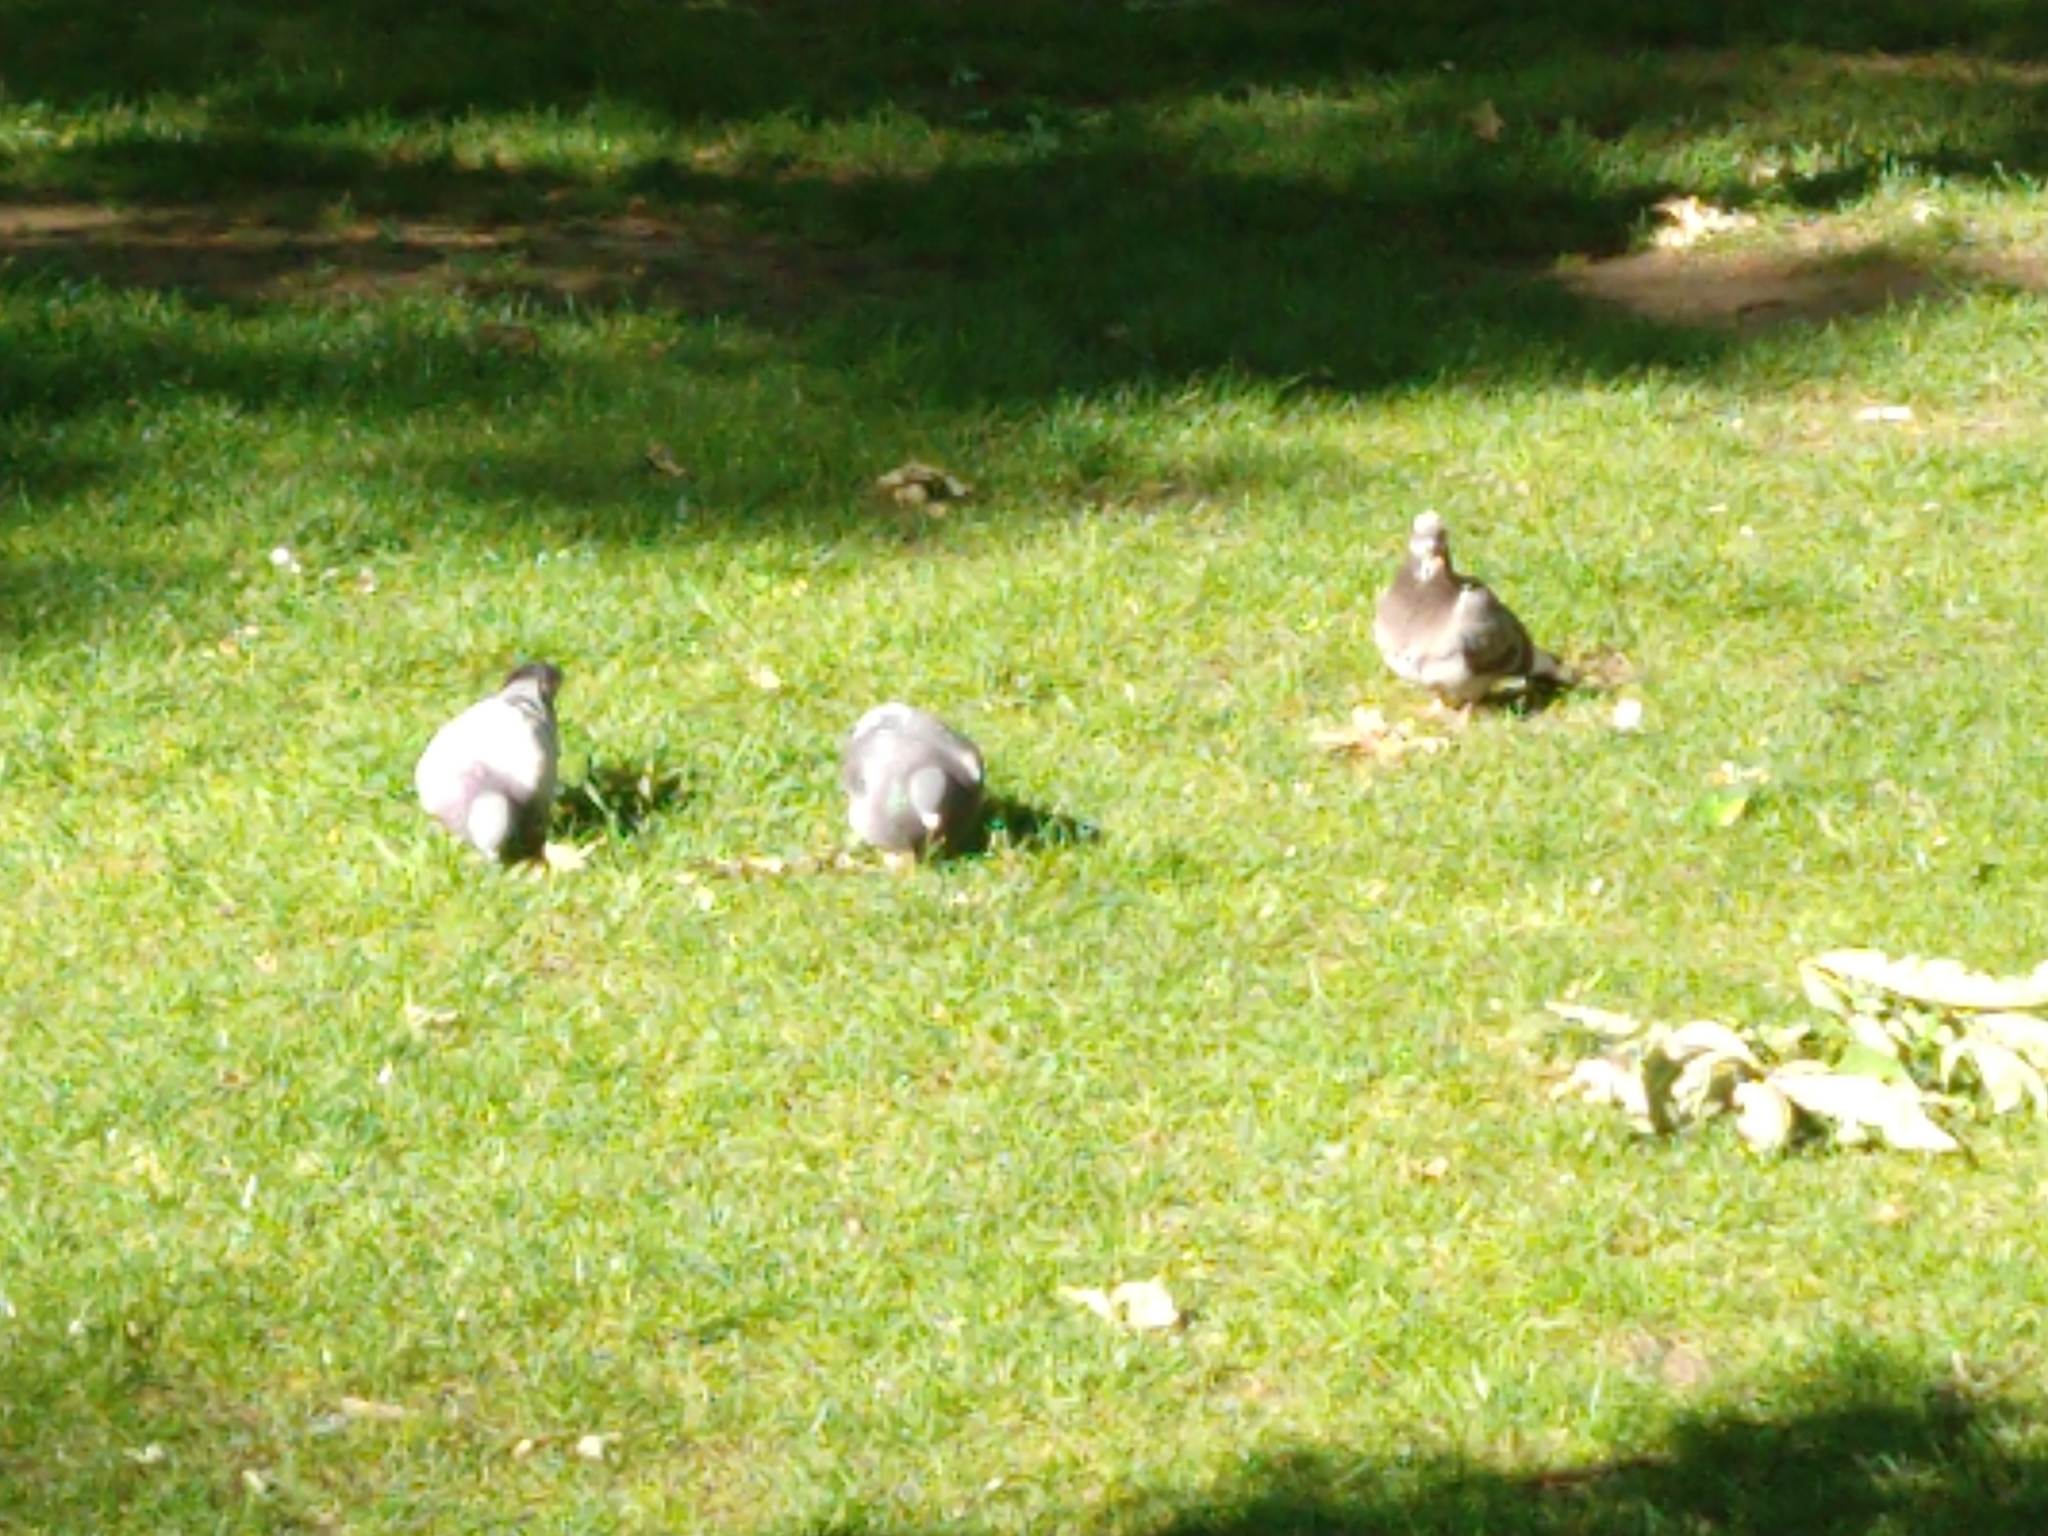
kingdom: Animalia
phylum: Chordata
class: Aves
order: Columbiformes
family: Columbidae
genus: Columba
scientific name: Columba livia
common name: Rock pigeon
